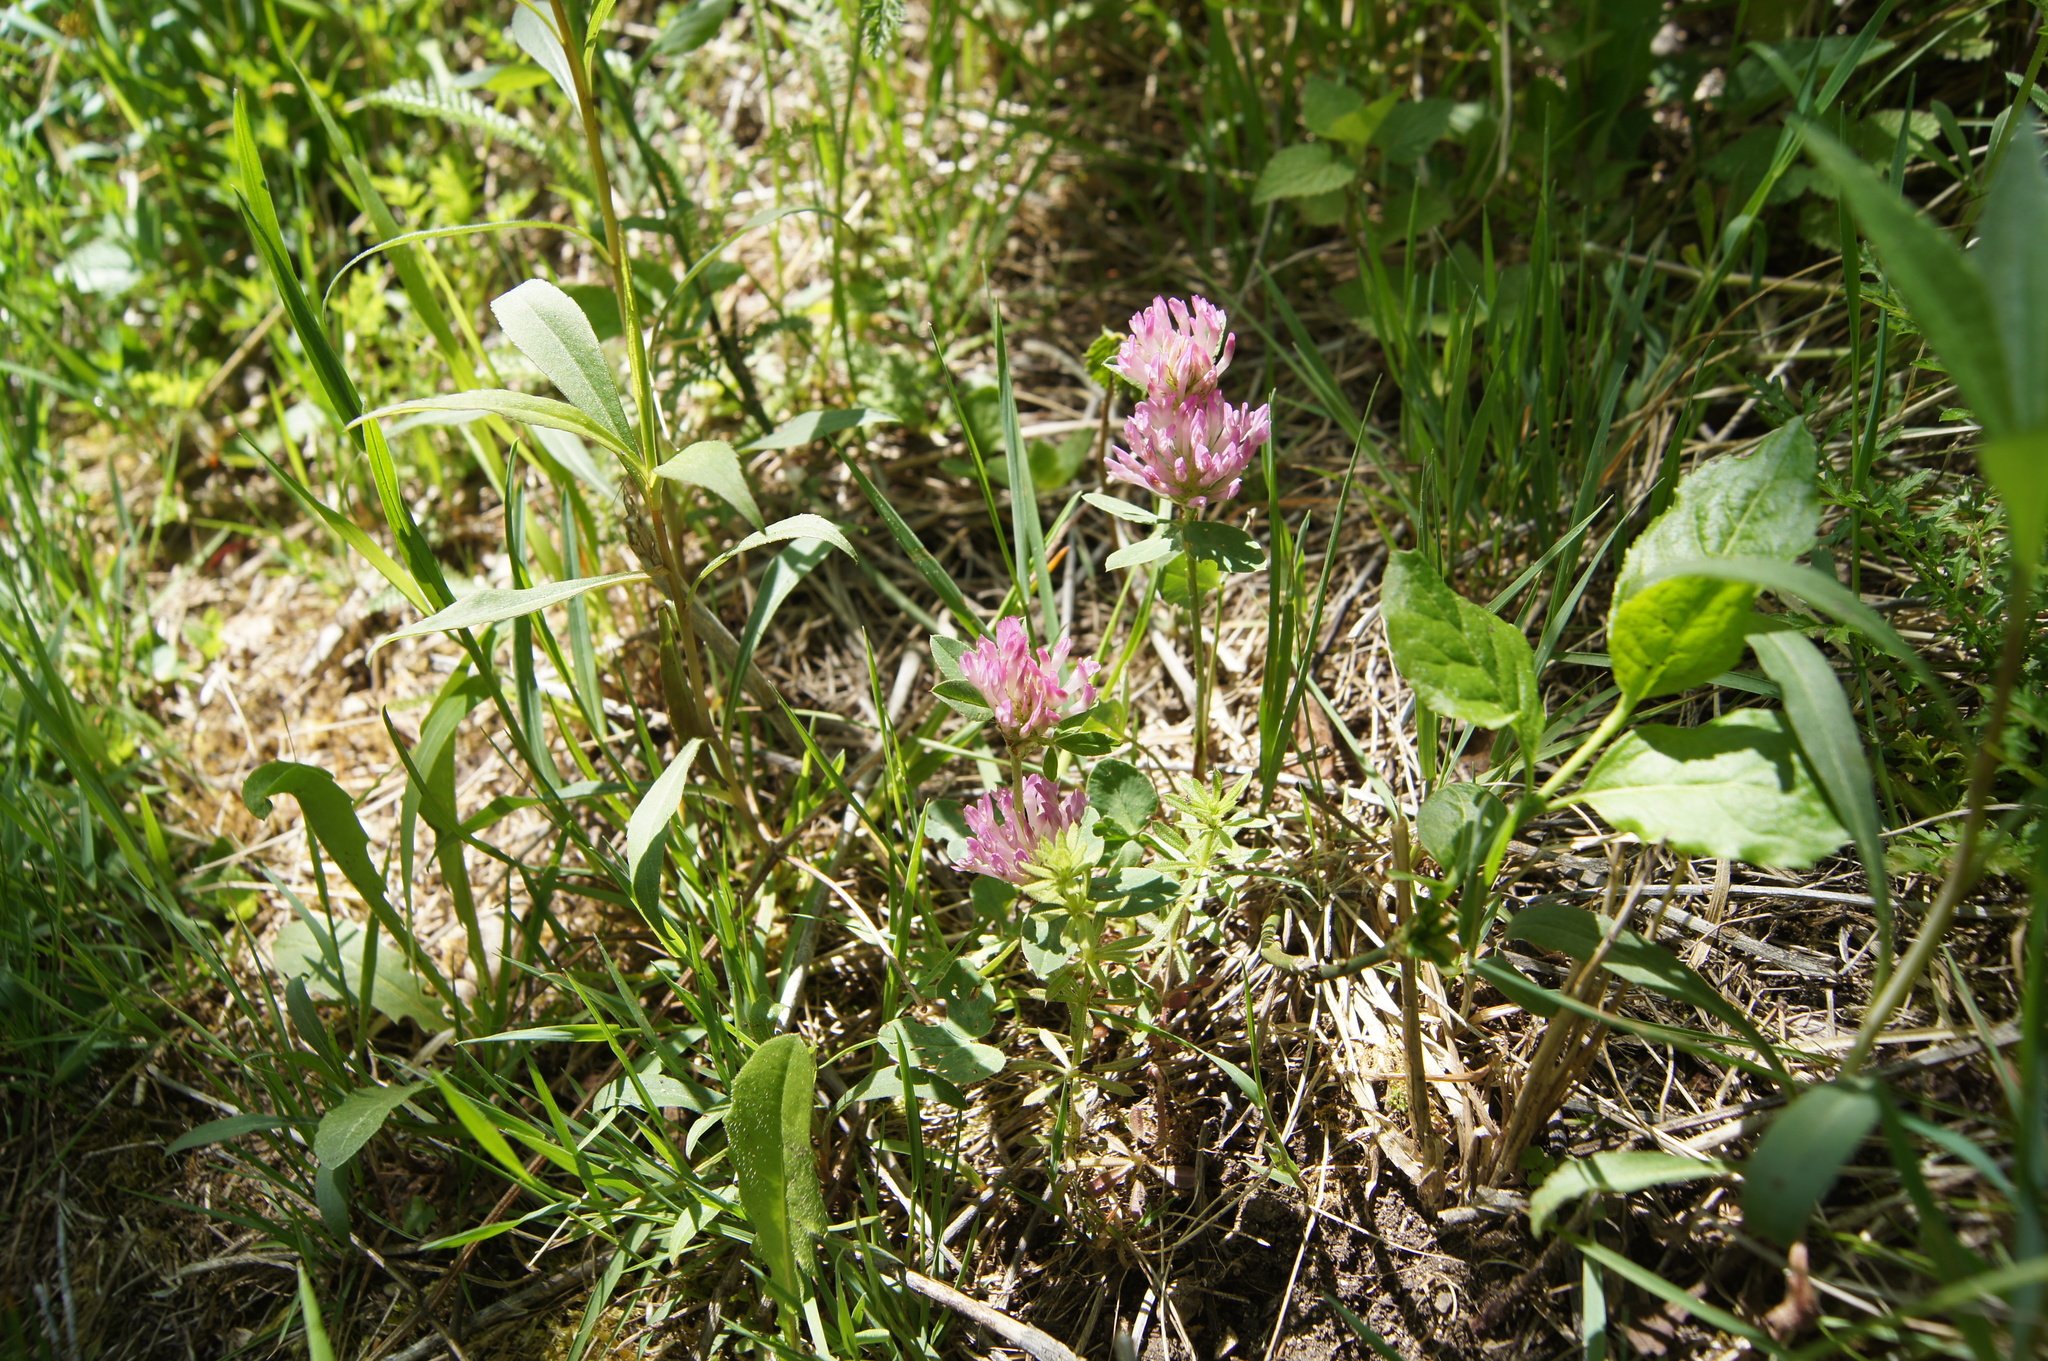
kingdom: Plantae
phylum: Tracheophyta
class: Magnoliopsida
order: Fabales
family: Fabaceae
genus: Trifolium
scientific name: Trifolium pratense
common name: Red clover
